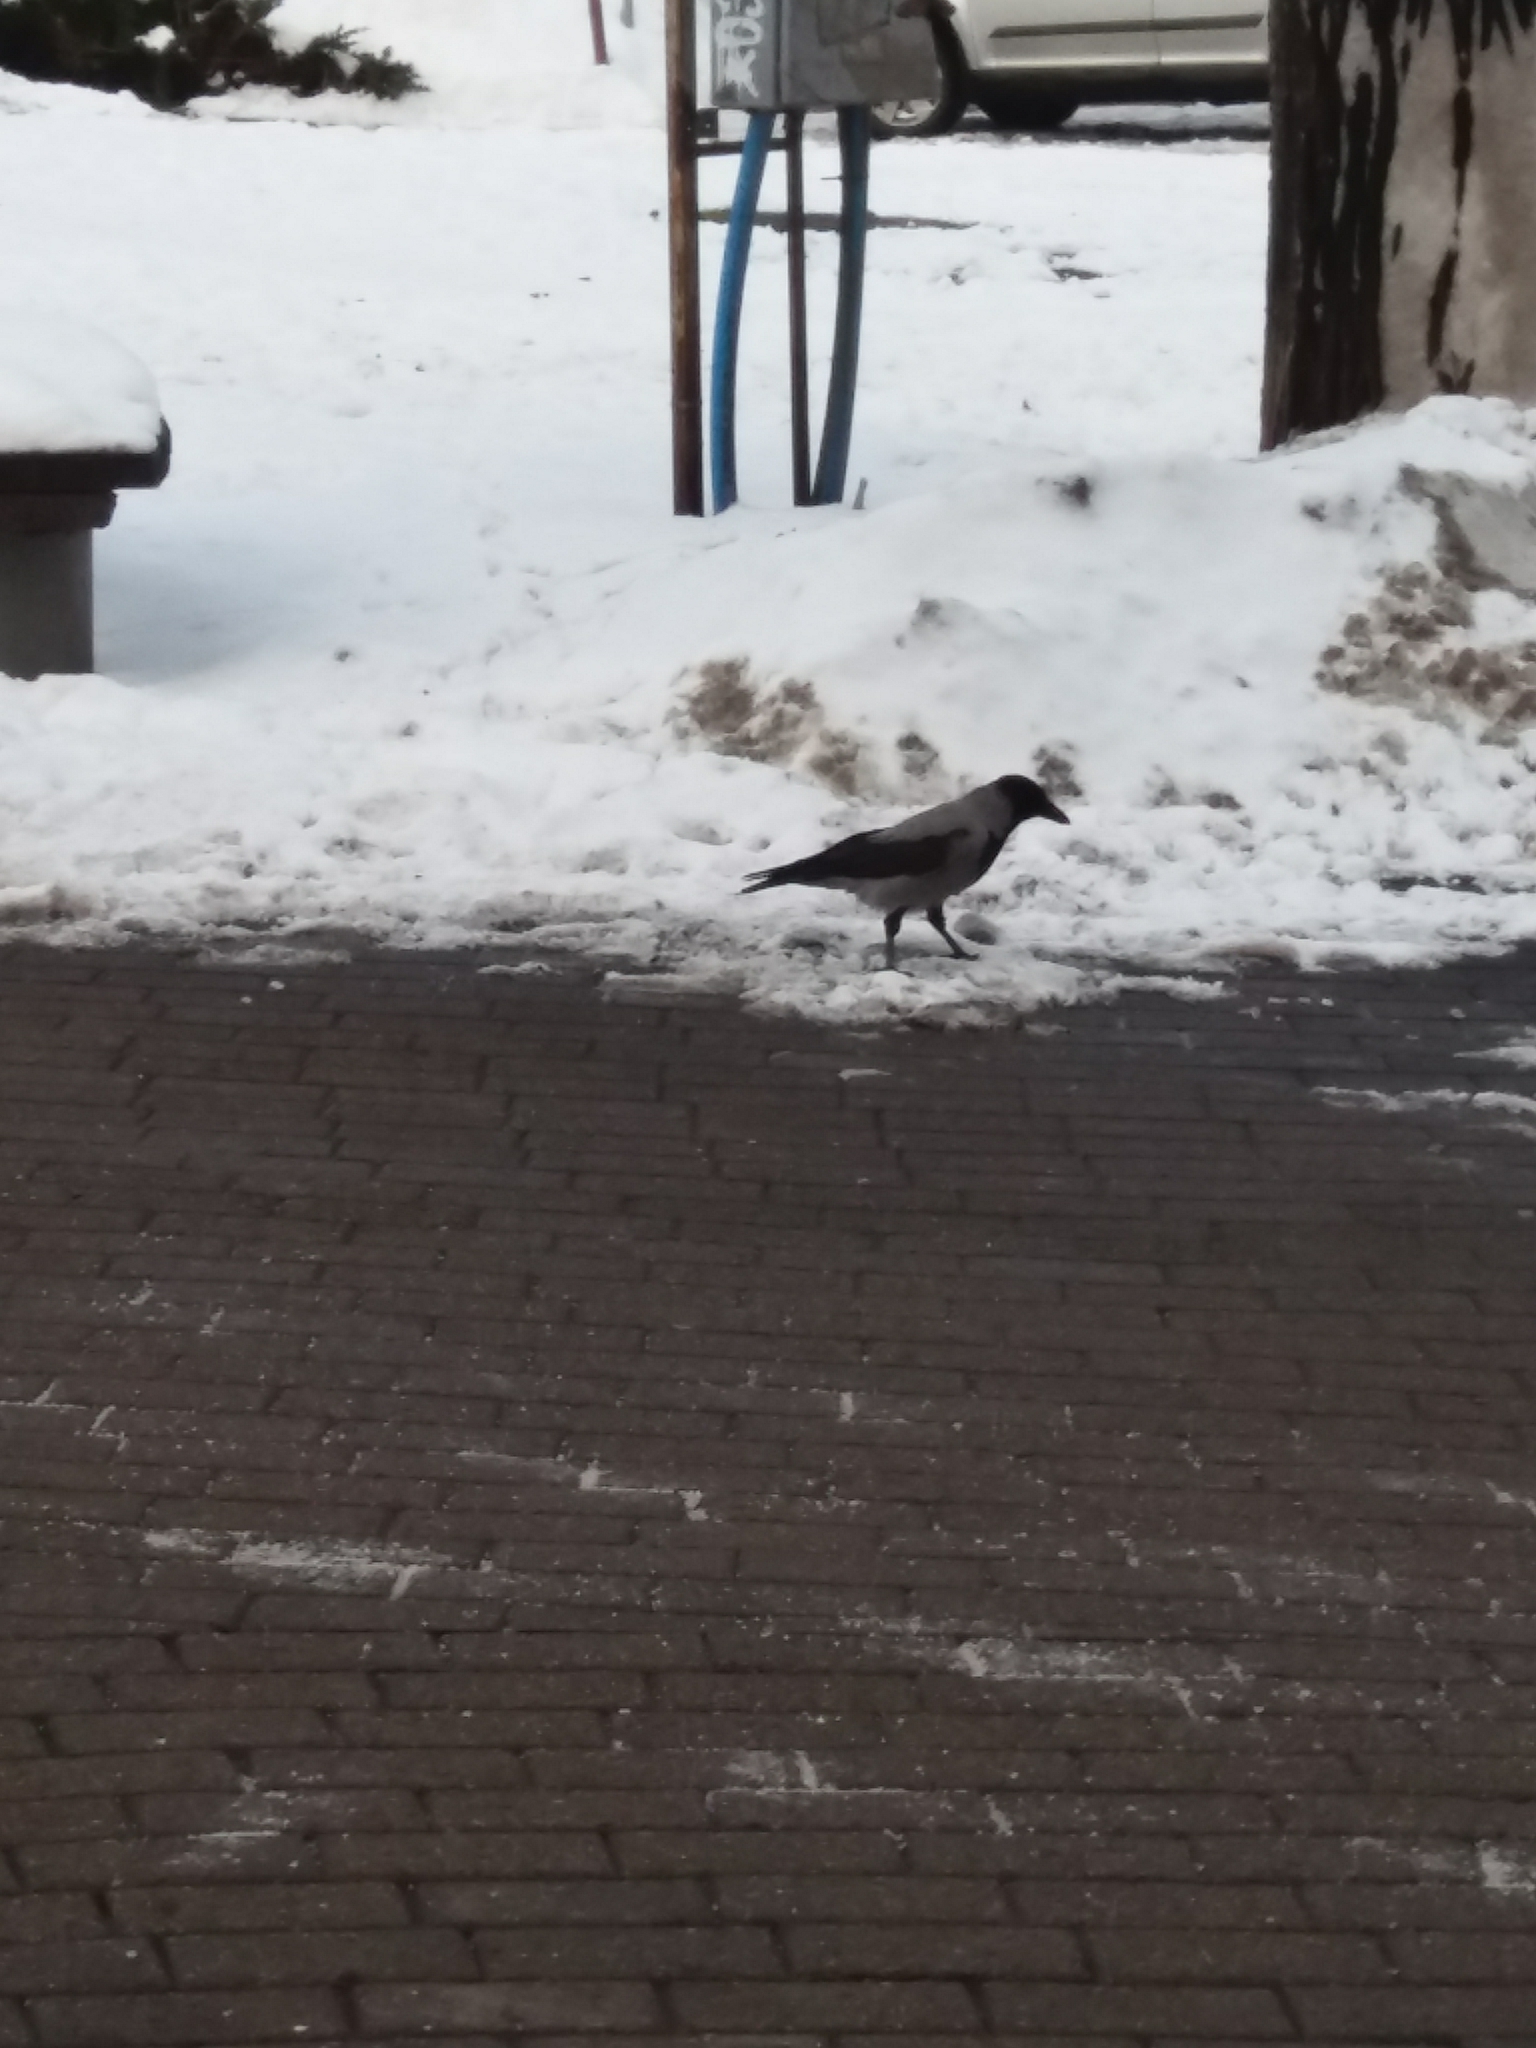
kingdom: Animalia
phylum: Chordata
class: Aves
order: Passeriformes
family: Corvidae
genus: Corvus
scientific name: Corvus cornix
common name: Hooded crow
